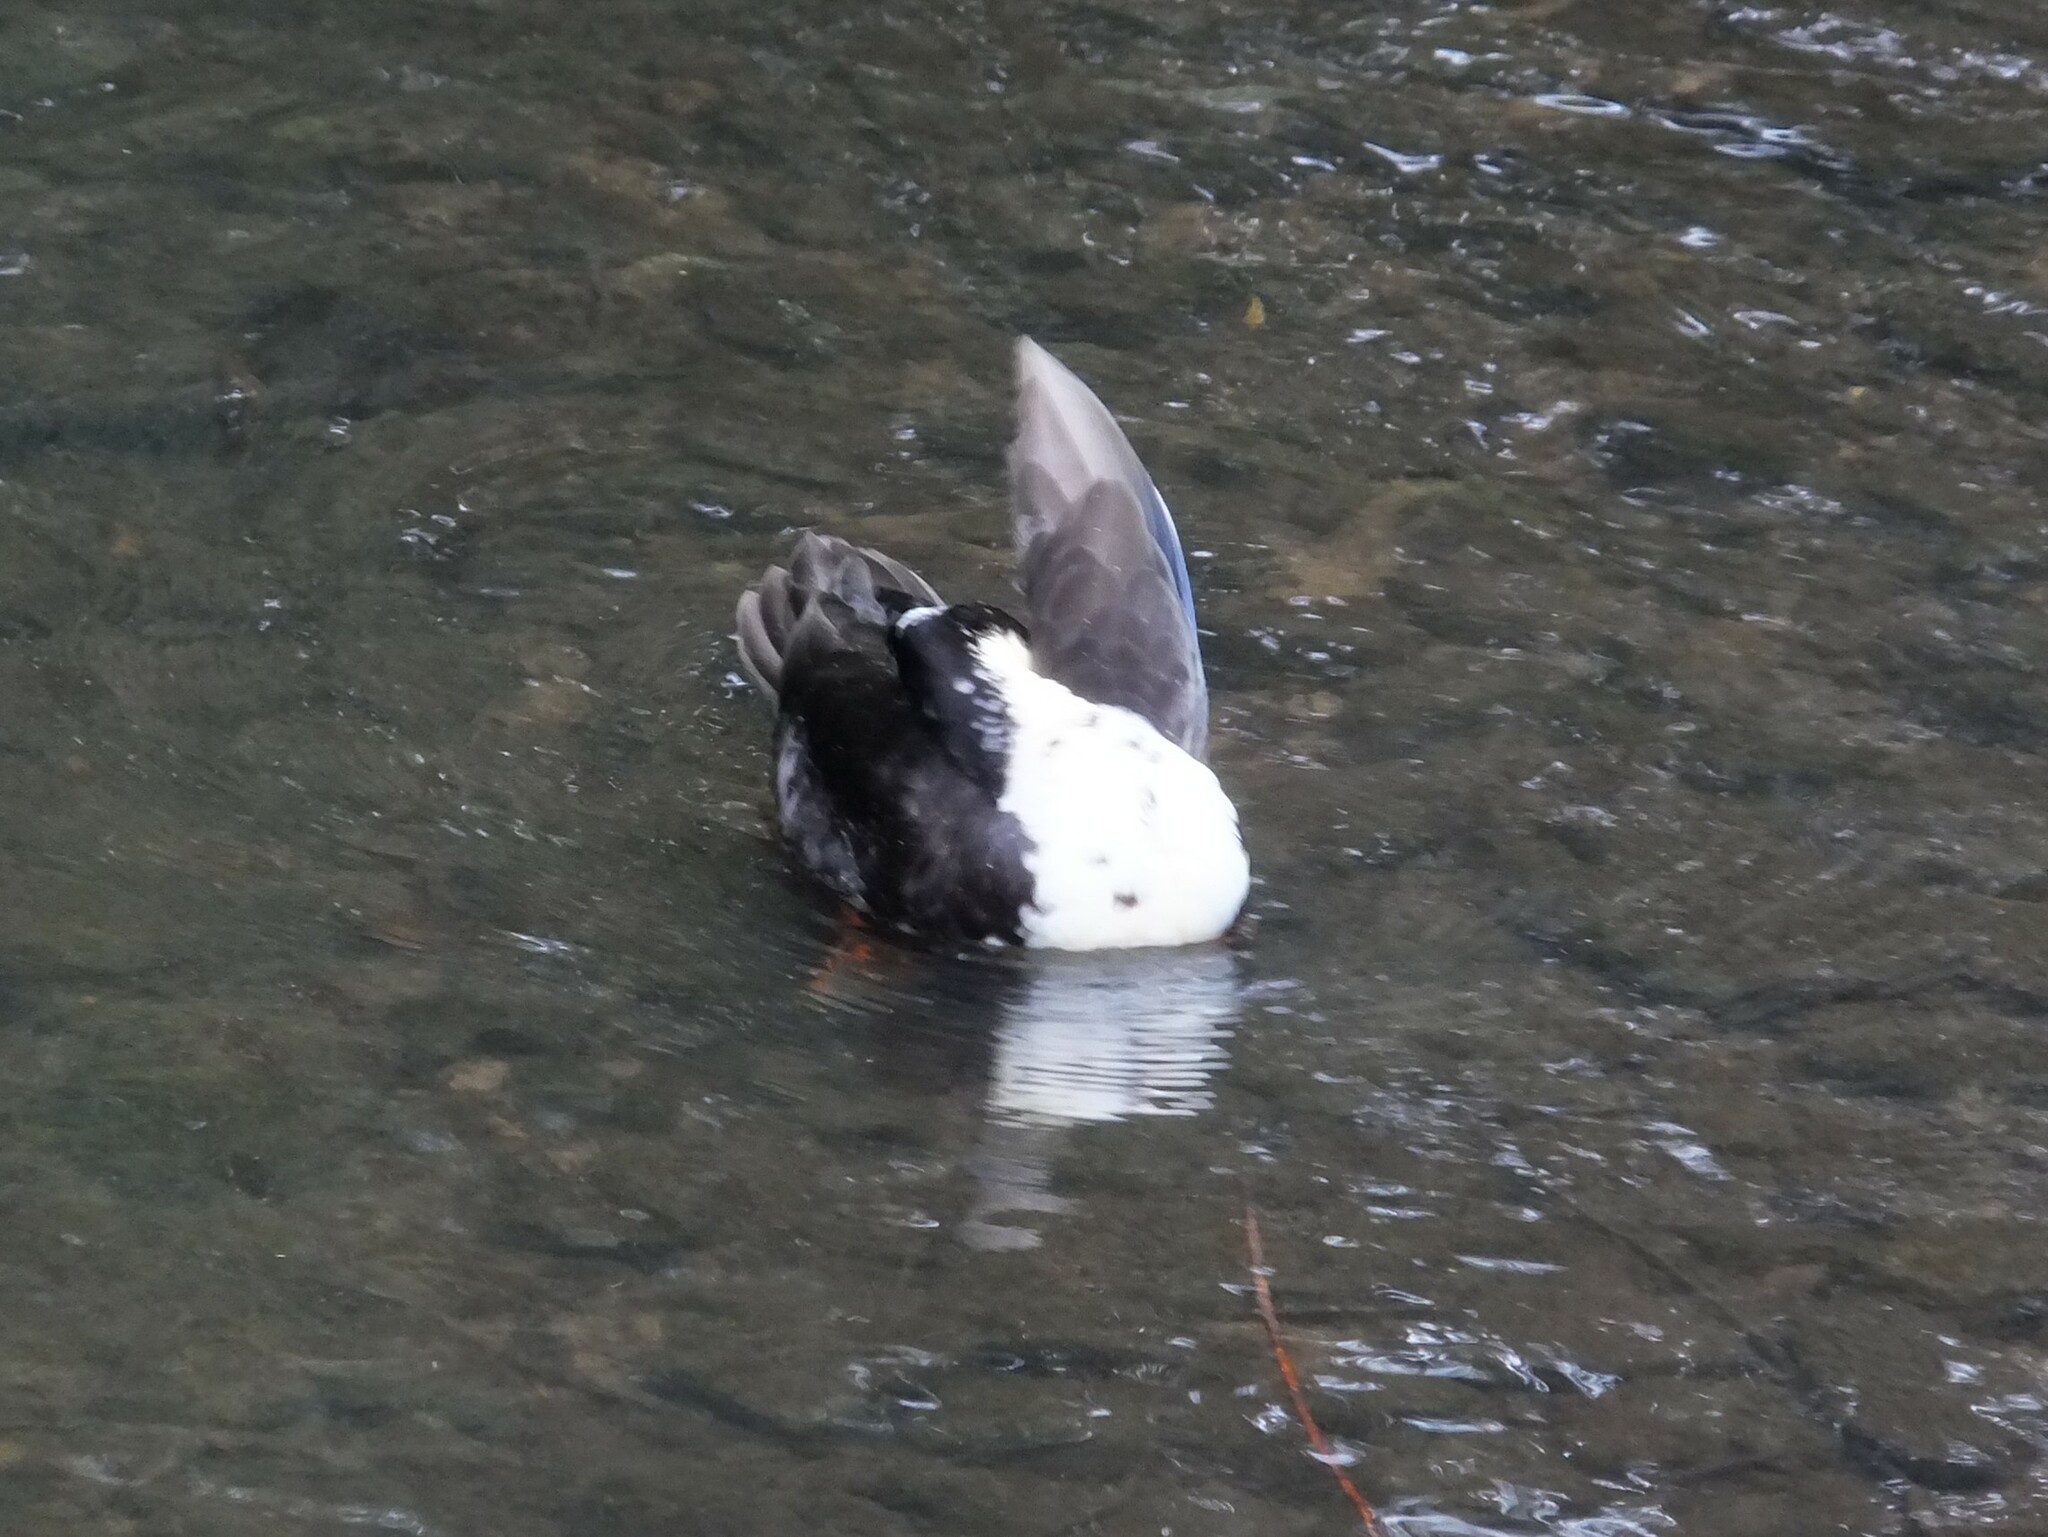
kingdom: Animalia
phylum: Chordata
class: Aves
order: Anseriformes
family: Anatidae
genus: Anas
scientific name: Anas platyrhynchos
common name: Mallard
